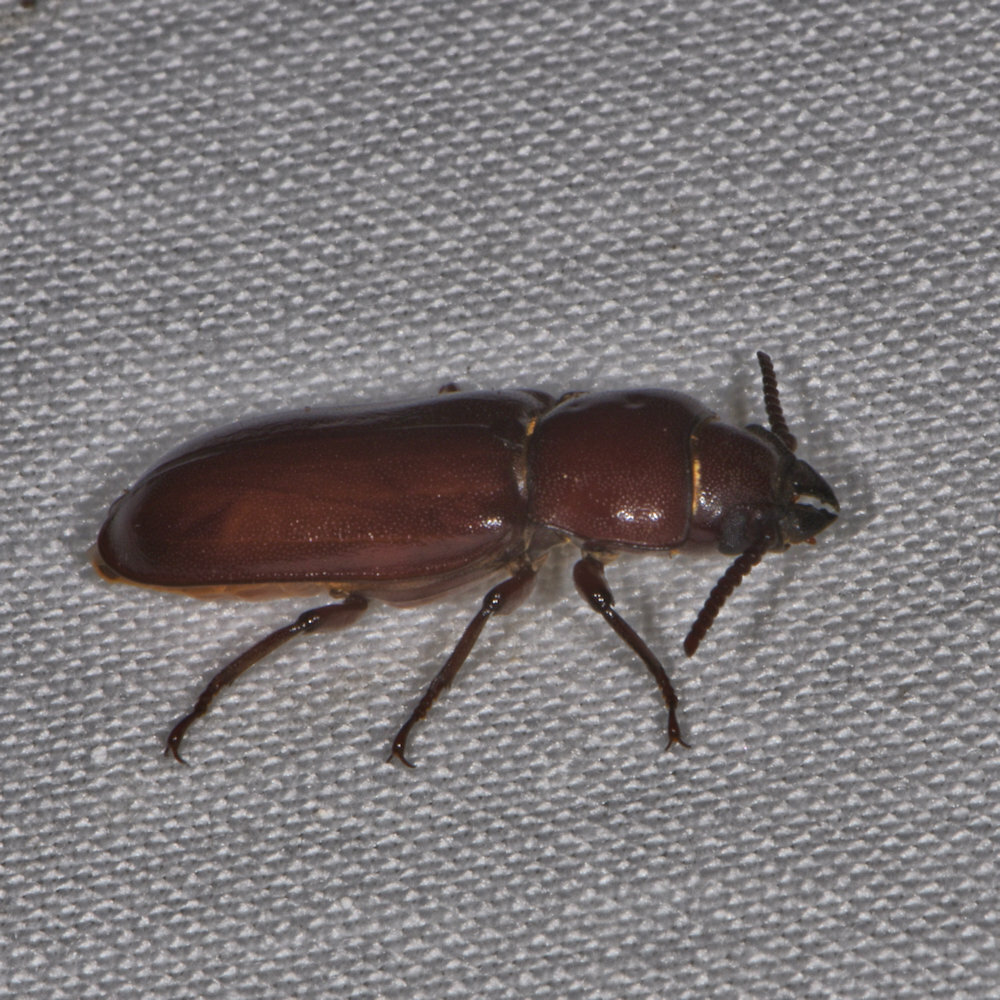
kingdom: Animalia
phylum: Arthropoda
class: Insecta
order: Coleoptera
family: Cerambycidae
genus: Neandra
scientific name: Neandra brunnea
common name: Pole borer
